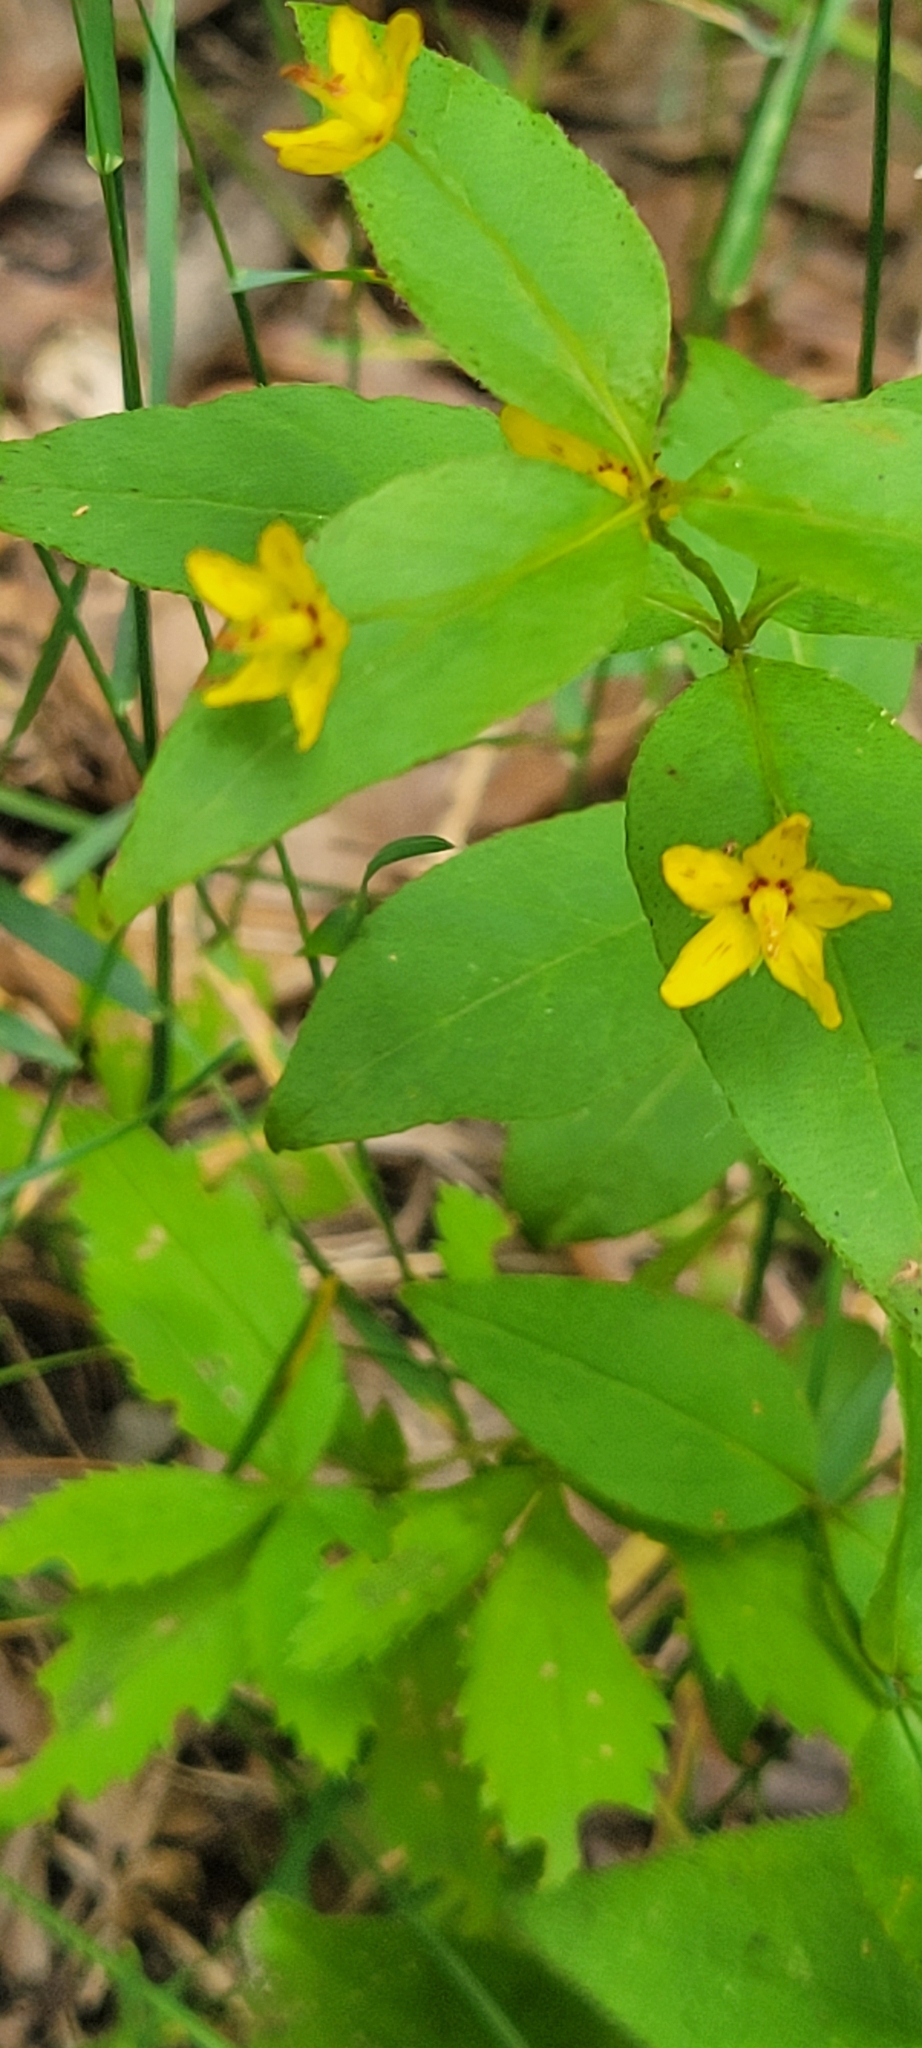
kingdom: Plantae
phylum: Tracheophyta
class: Magnoliopsida
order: Ericales
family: Primulaceae
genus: Lysimachia
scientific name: Lysimachia quadrifolia
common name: Whorled loosestrife
